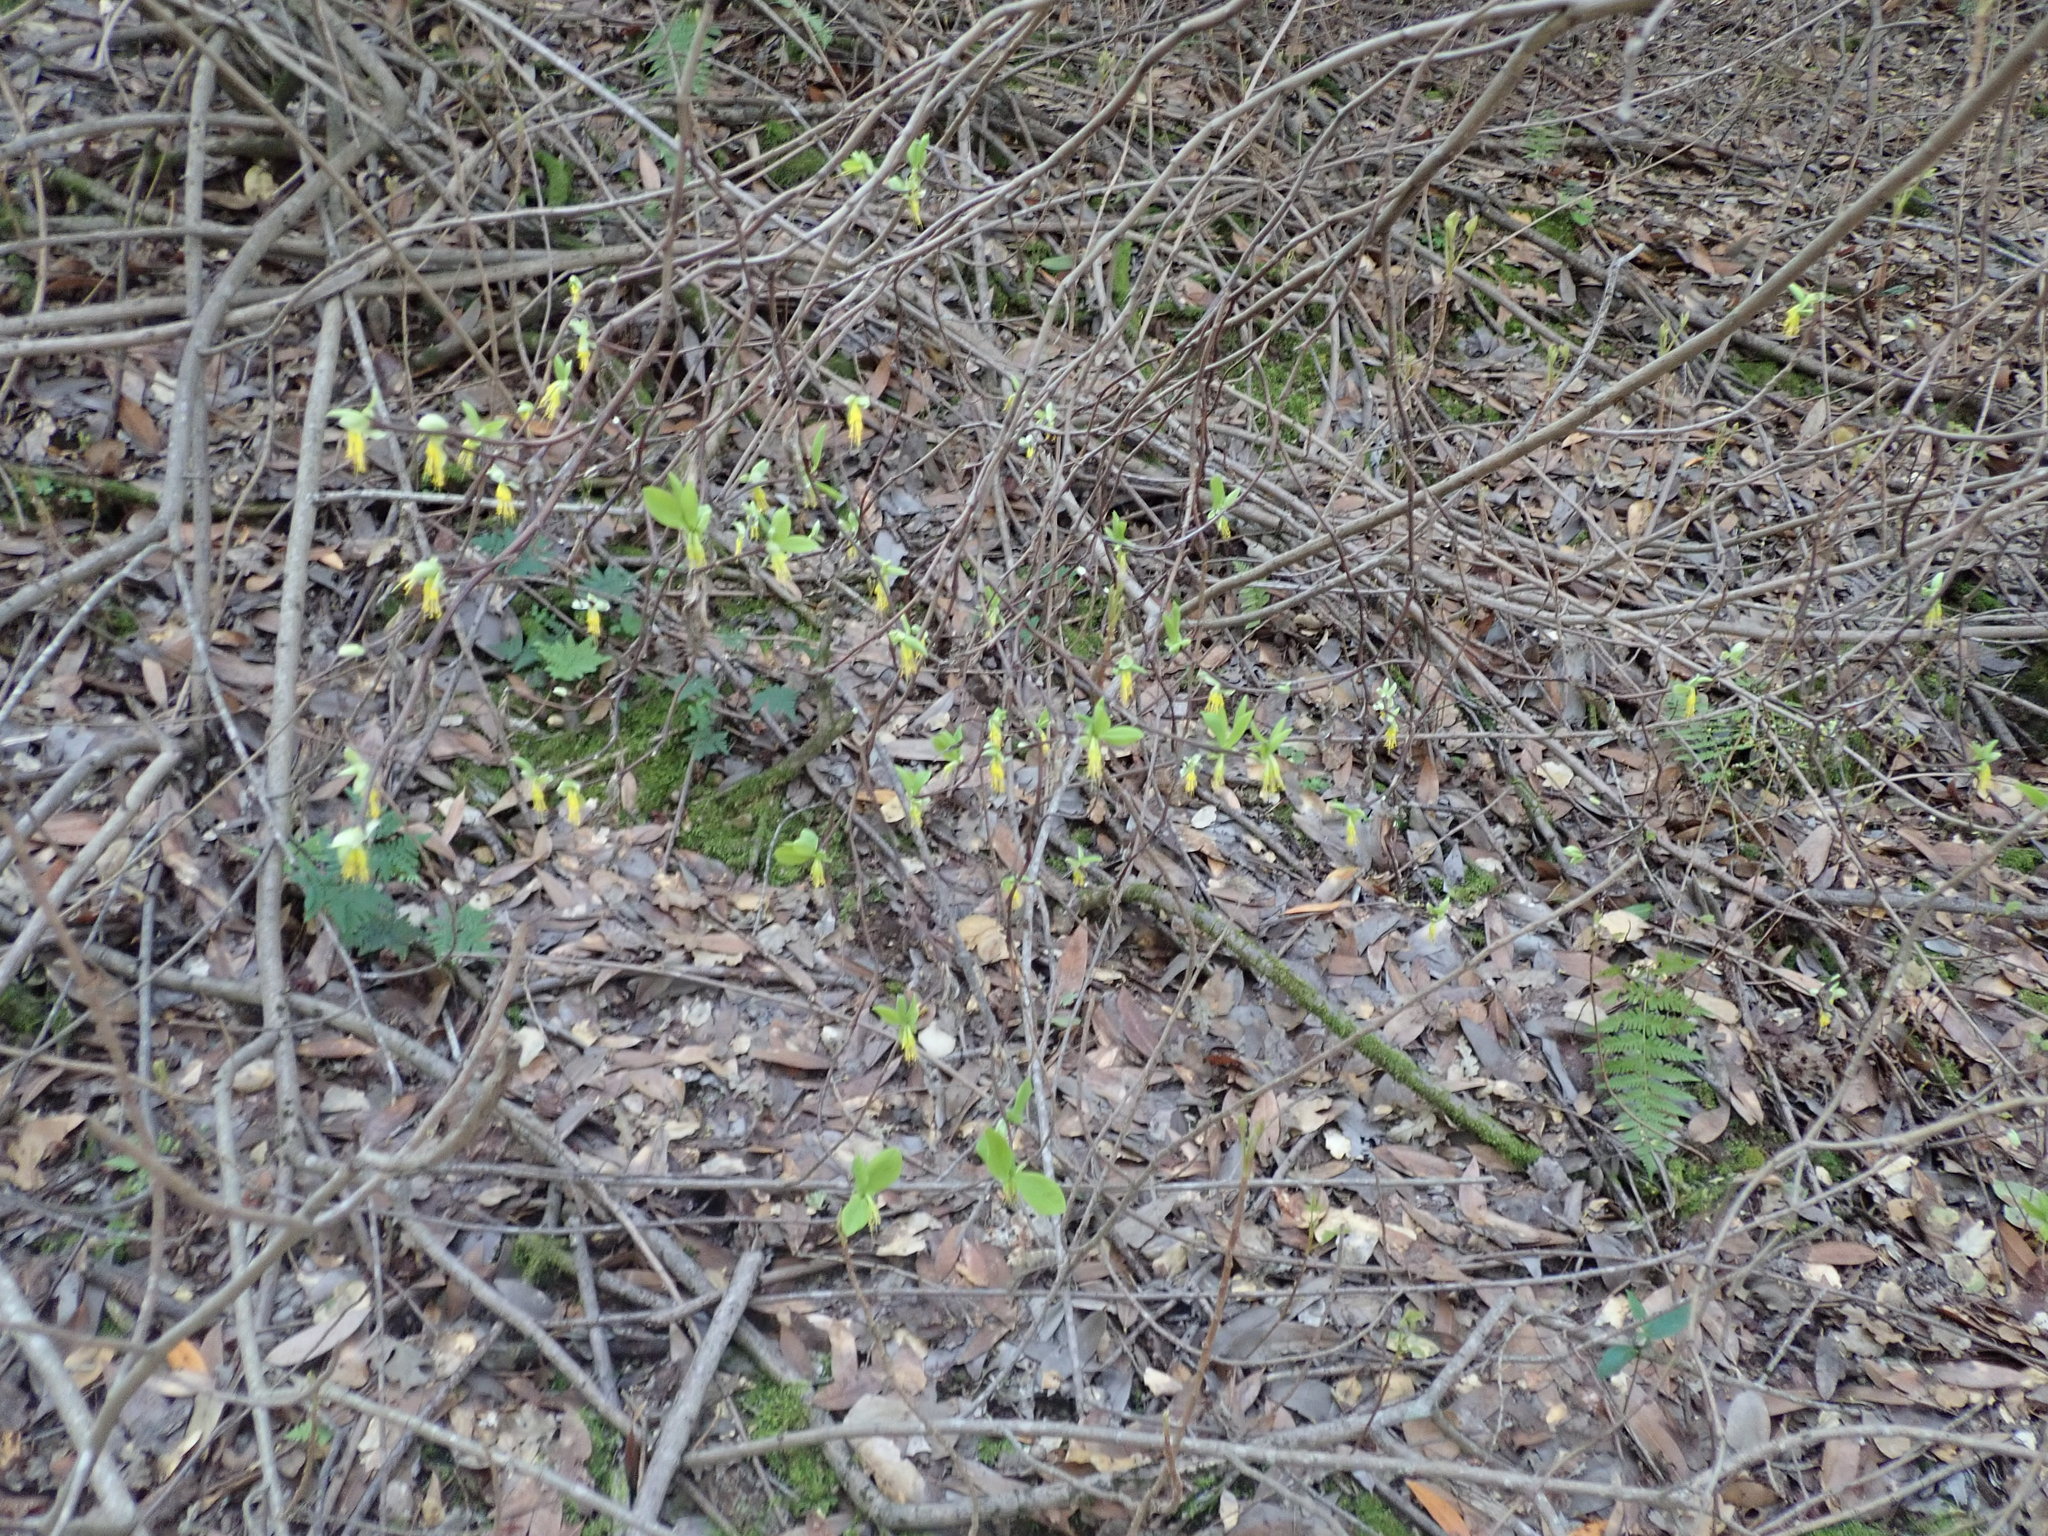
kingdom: Plantae
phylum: Tracheophyta
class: Magnoliopsida
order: Malvales
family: Thymelaeaceae
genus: Dirca
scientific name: Dirca occidentalis
